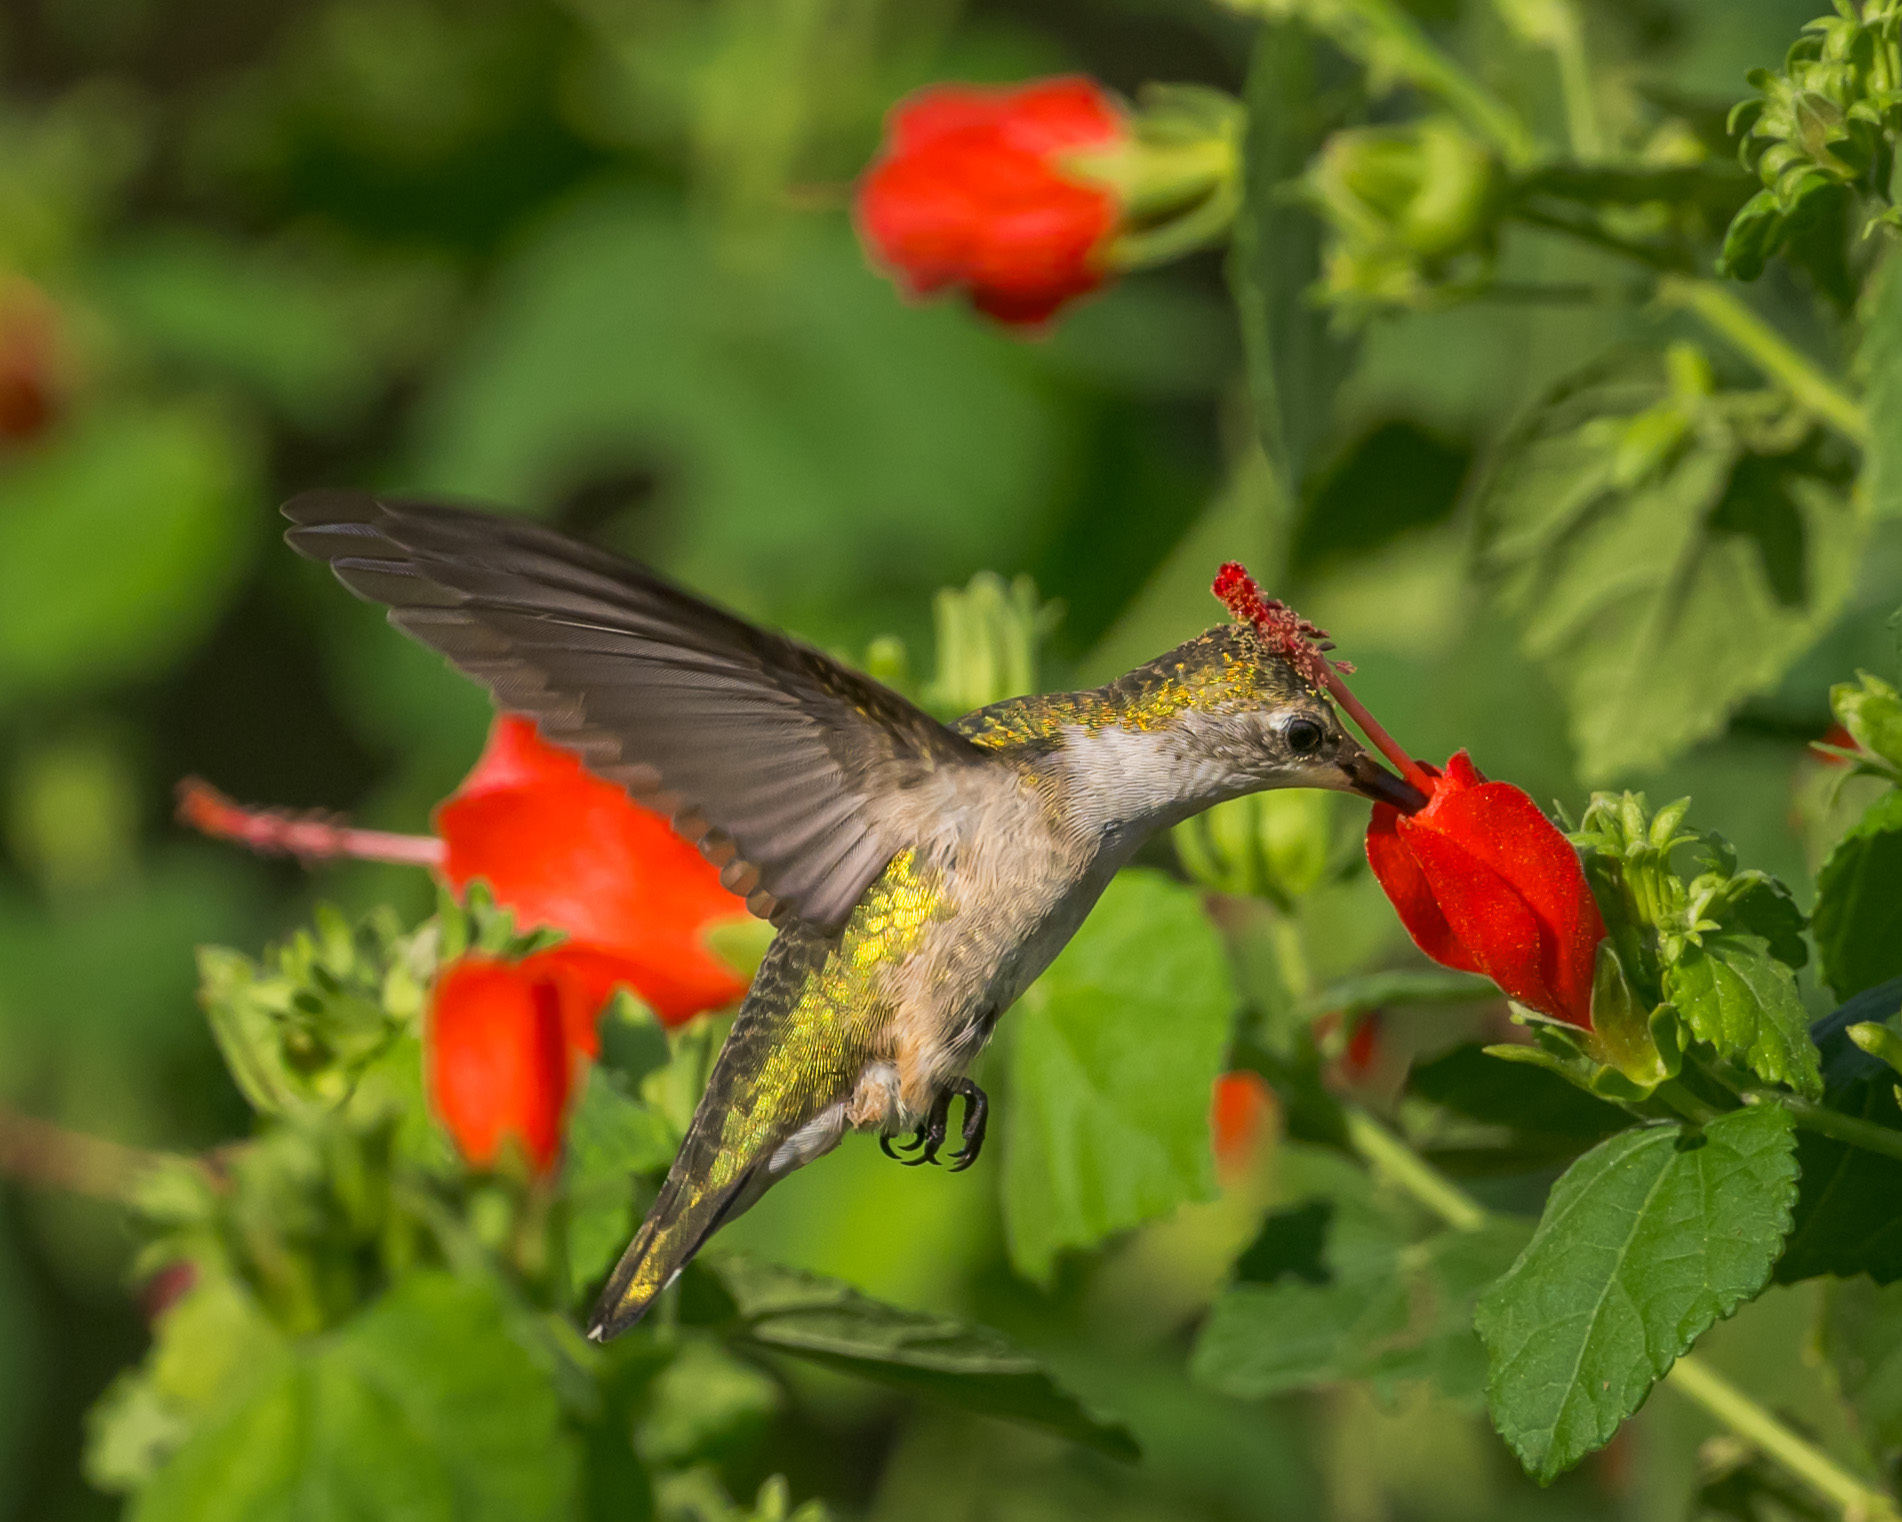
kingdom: Animalia
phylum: Chordata
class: Aves
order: Apodiformes
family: Trochilidae
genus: Archilochus
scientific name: Archilochus colubris
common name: Ruby-throated hummingbird
